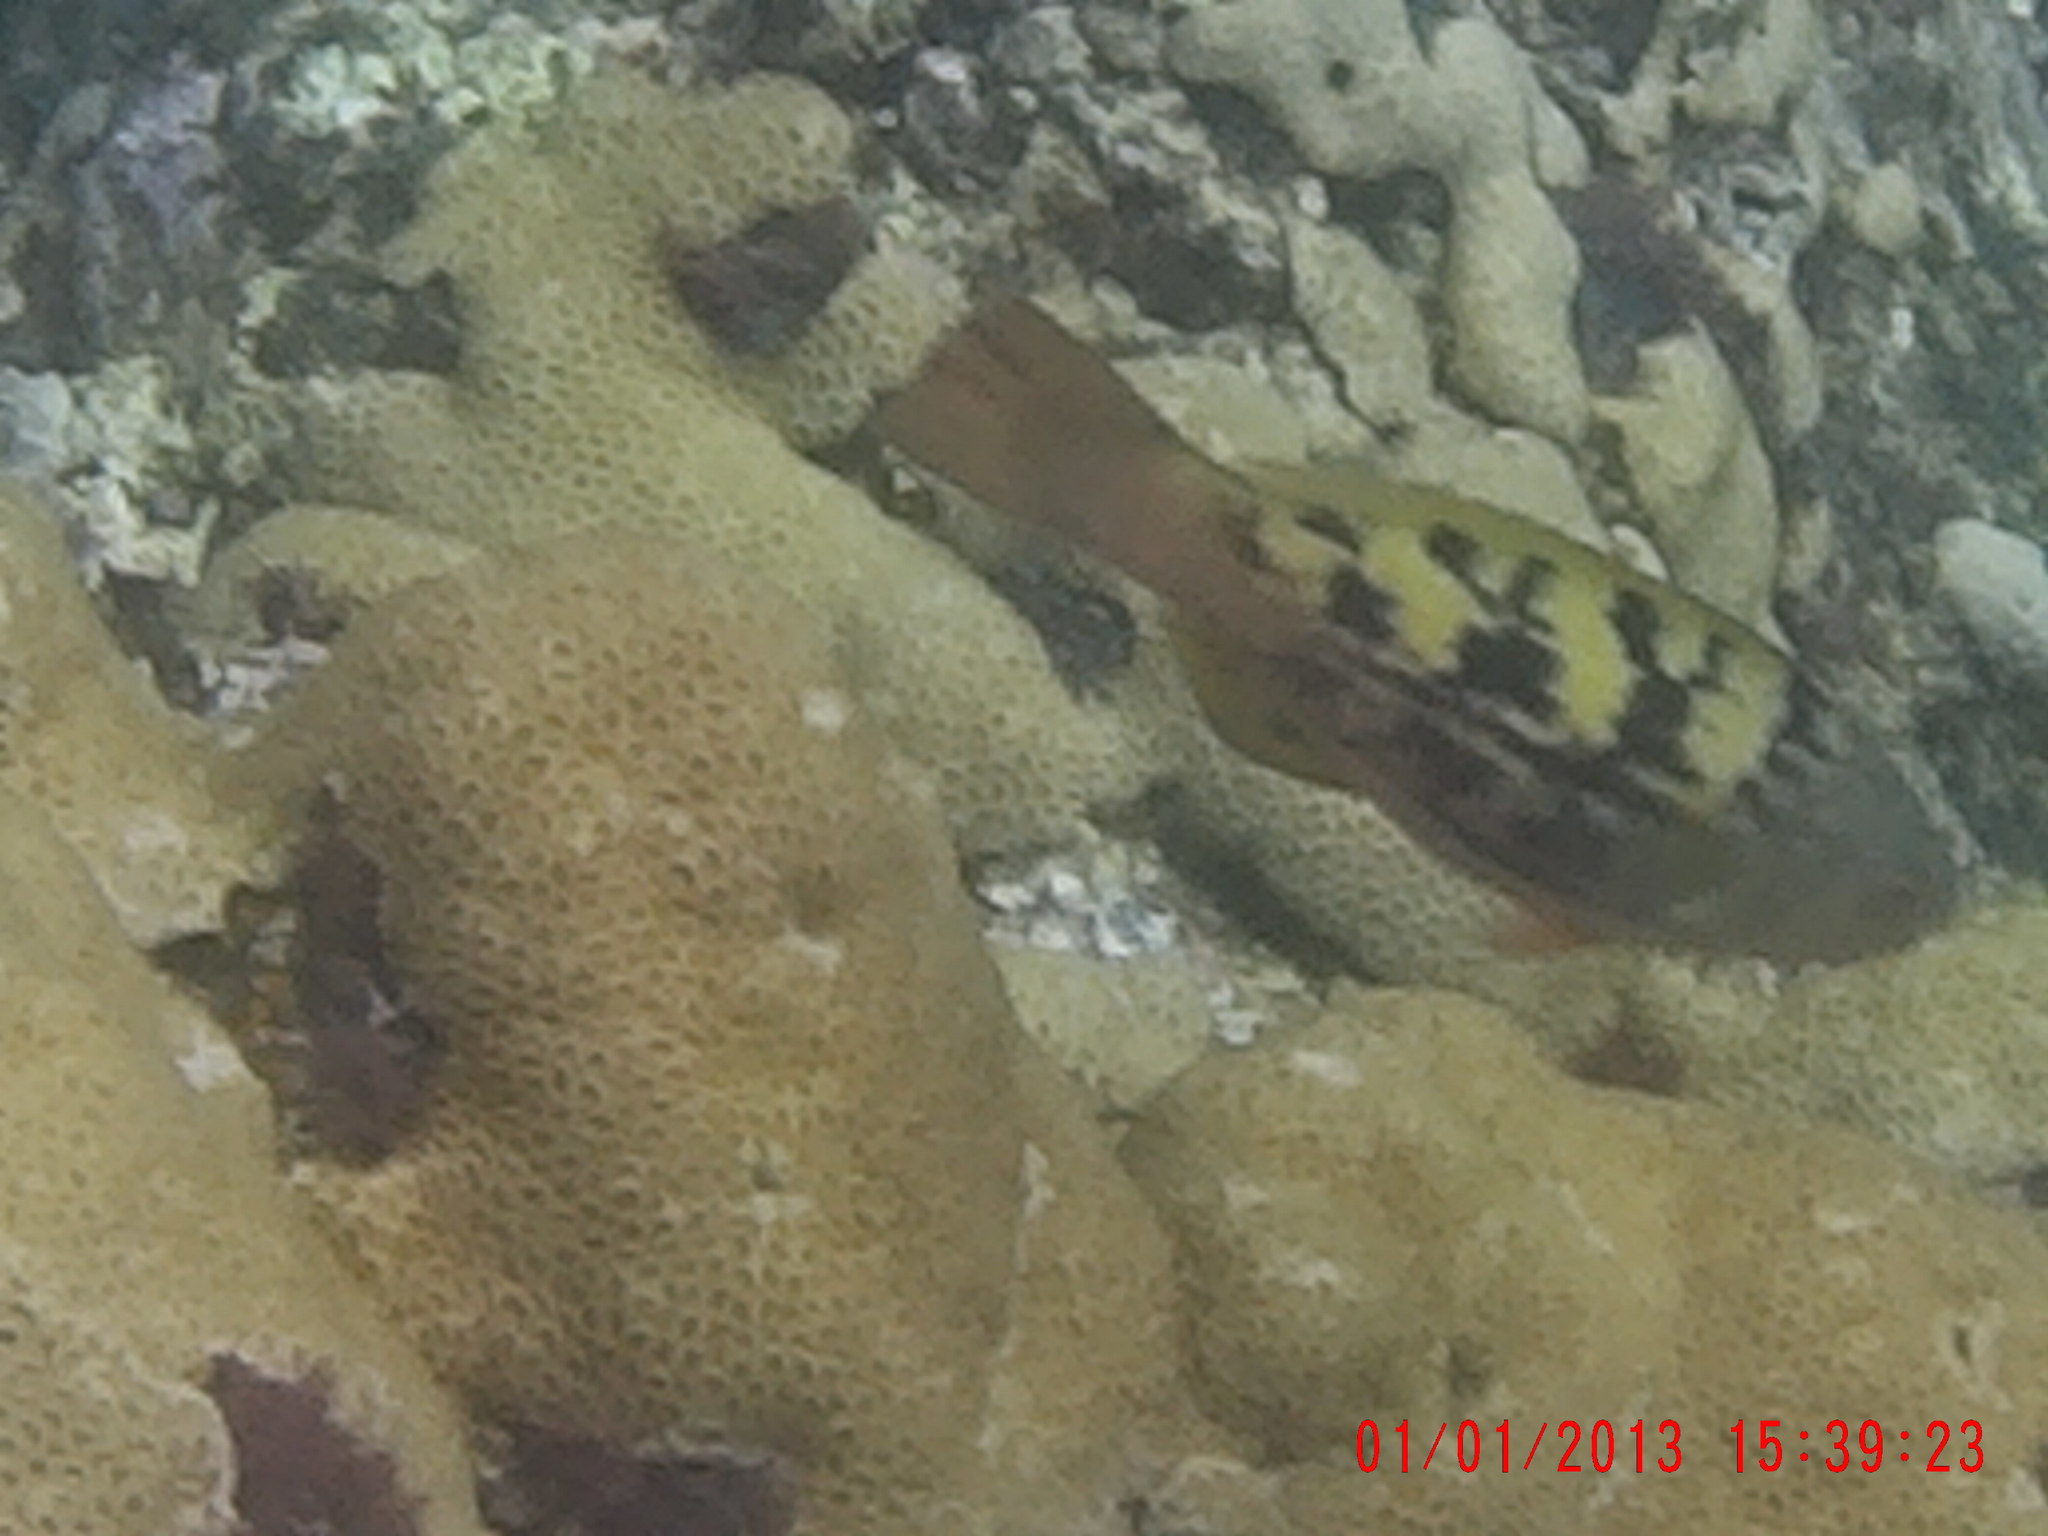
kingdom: Animalia
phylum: Chordata
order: Perciformes
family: Scaridae
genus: Scarus
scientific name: Scarus hoefleri
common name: Guinean parrotfish
